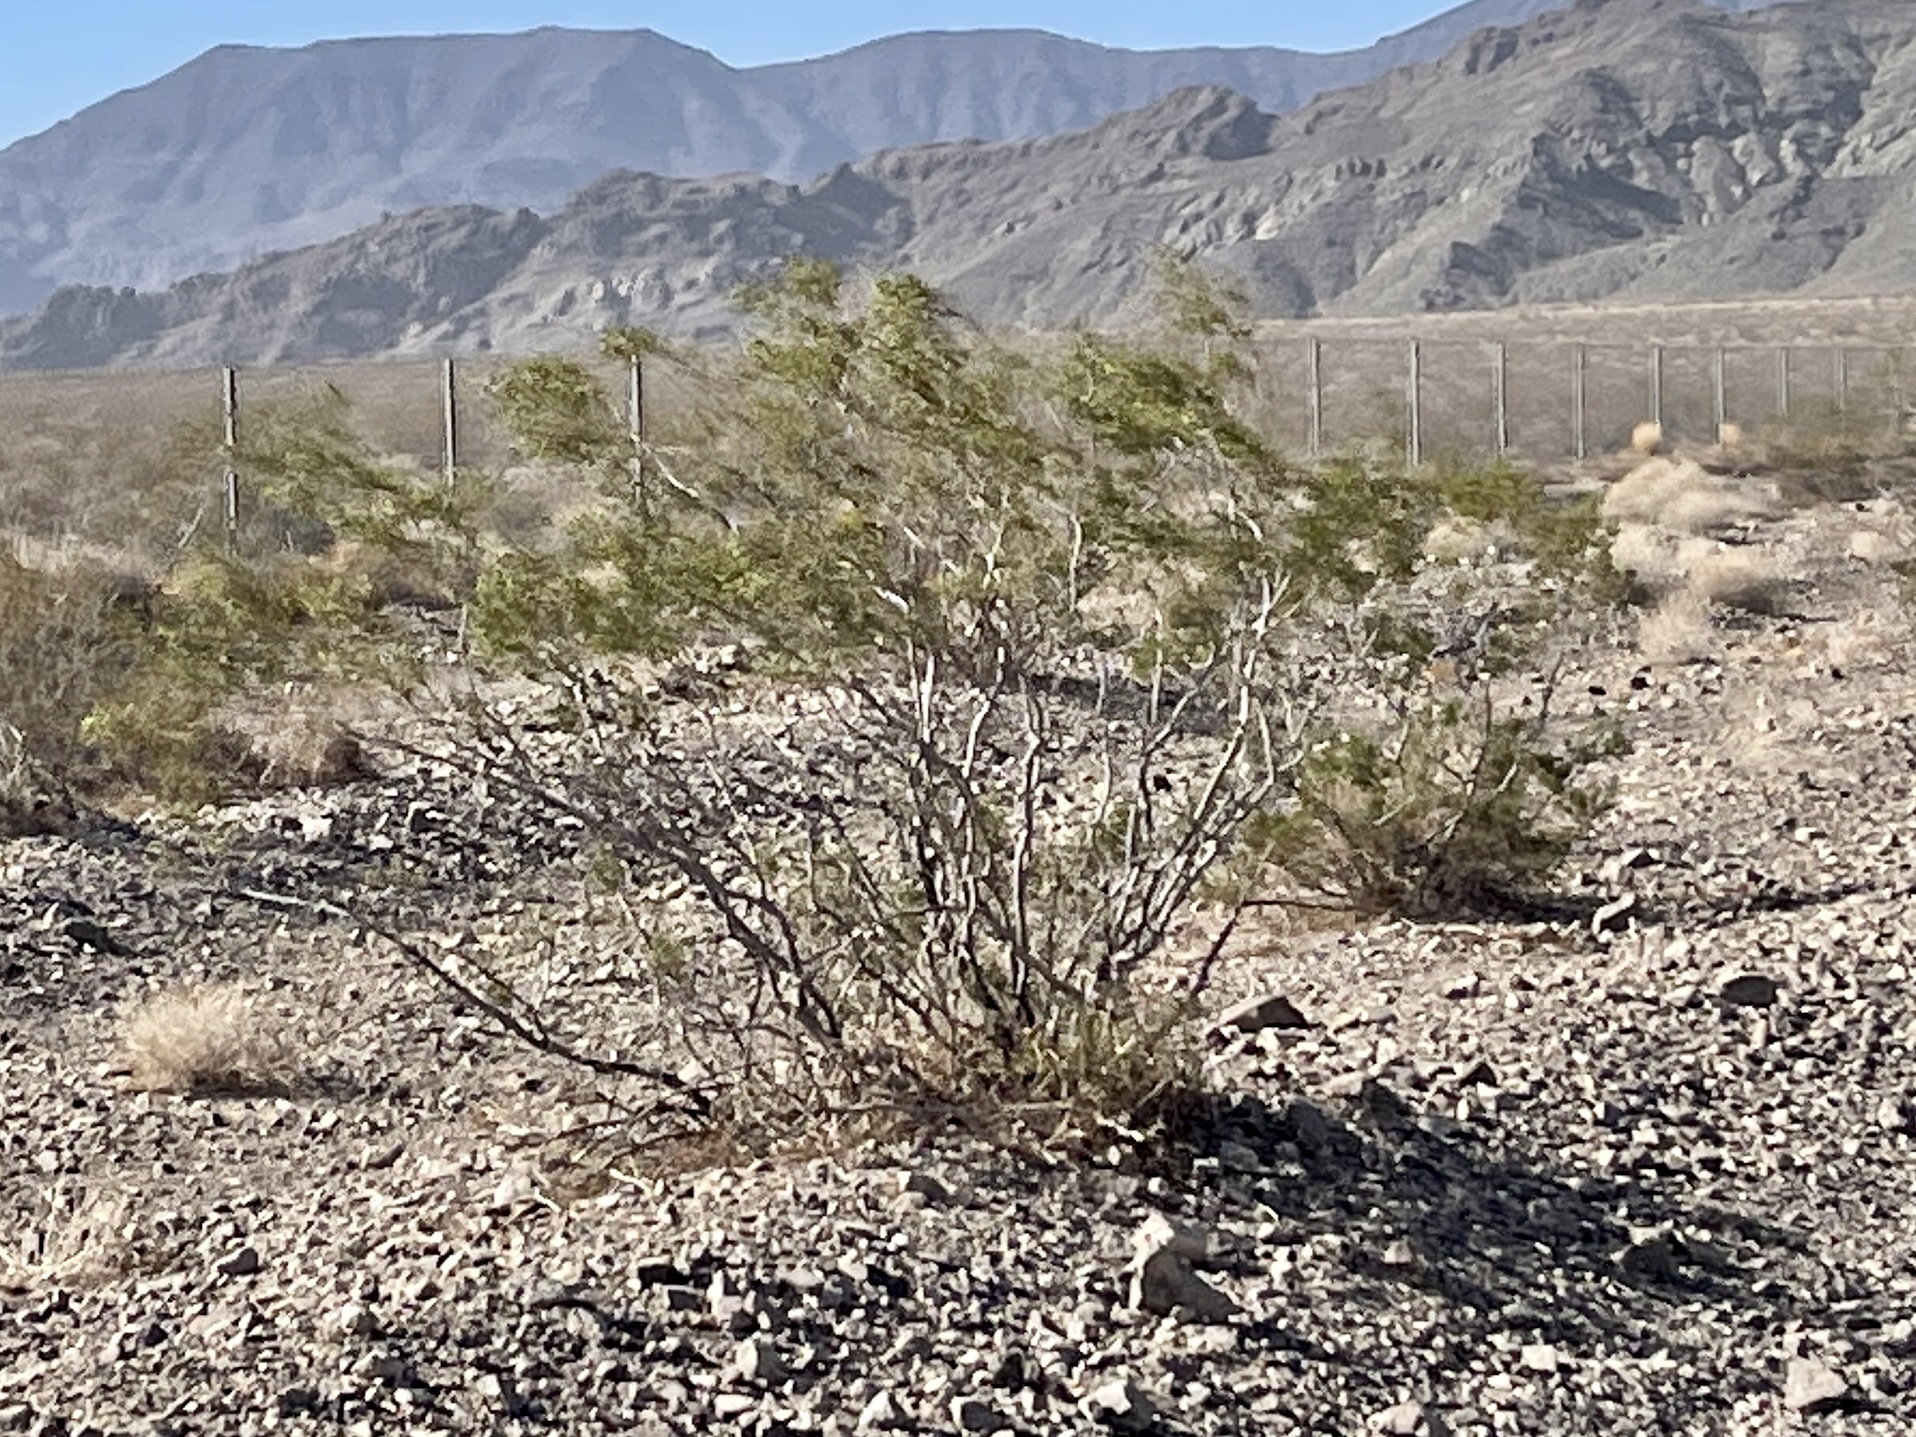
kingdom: Plantae
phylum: Tracheophyta
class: Magnoliopsida
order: Zygophyllales
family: Zygophyllaceae
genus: Larrea
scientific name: Larrea tridentata
